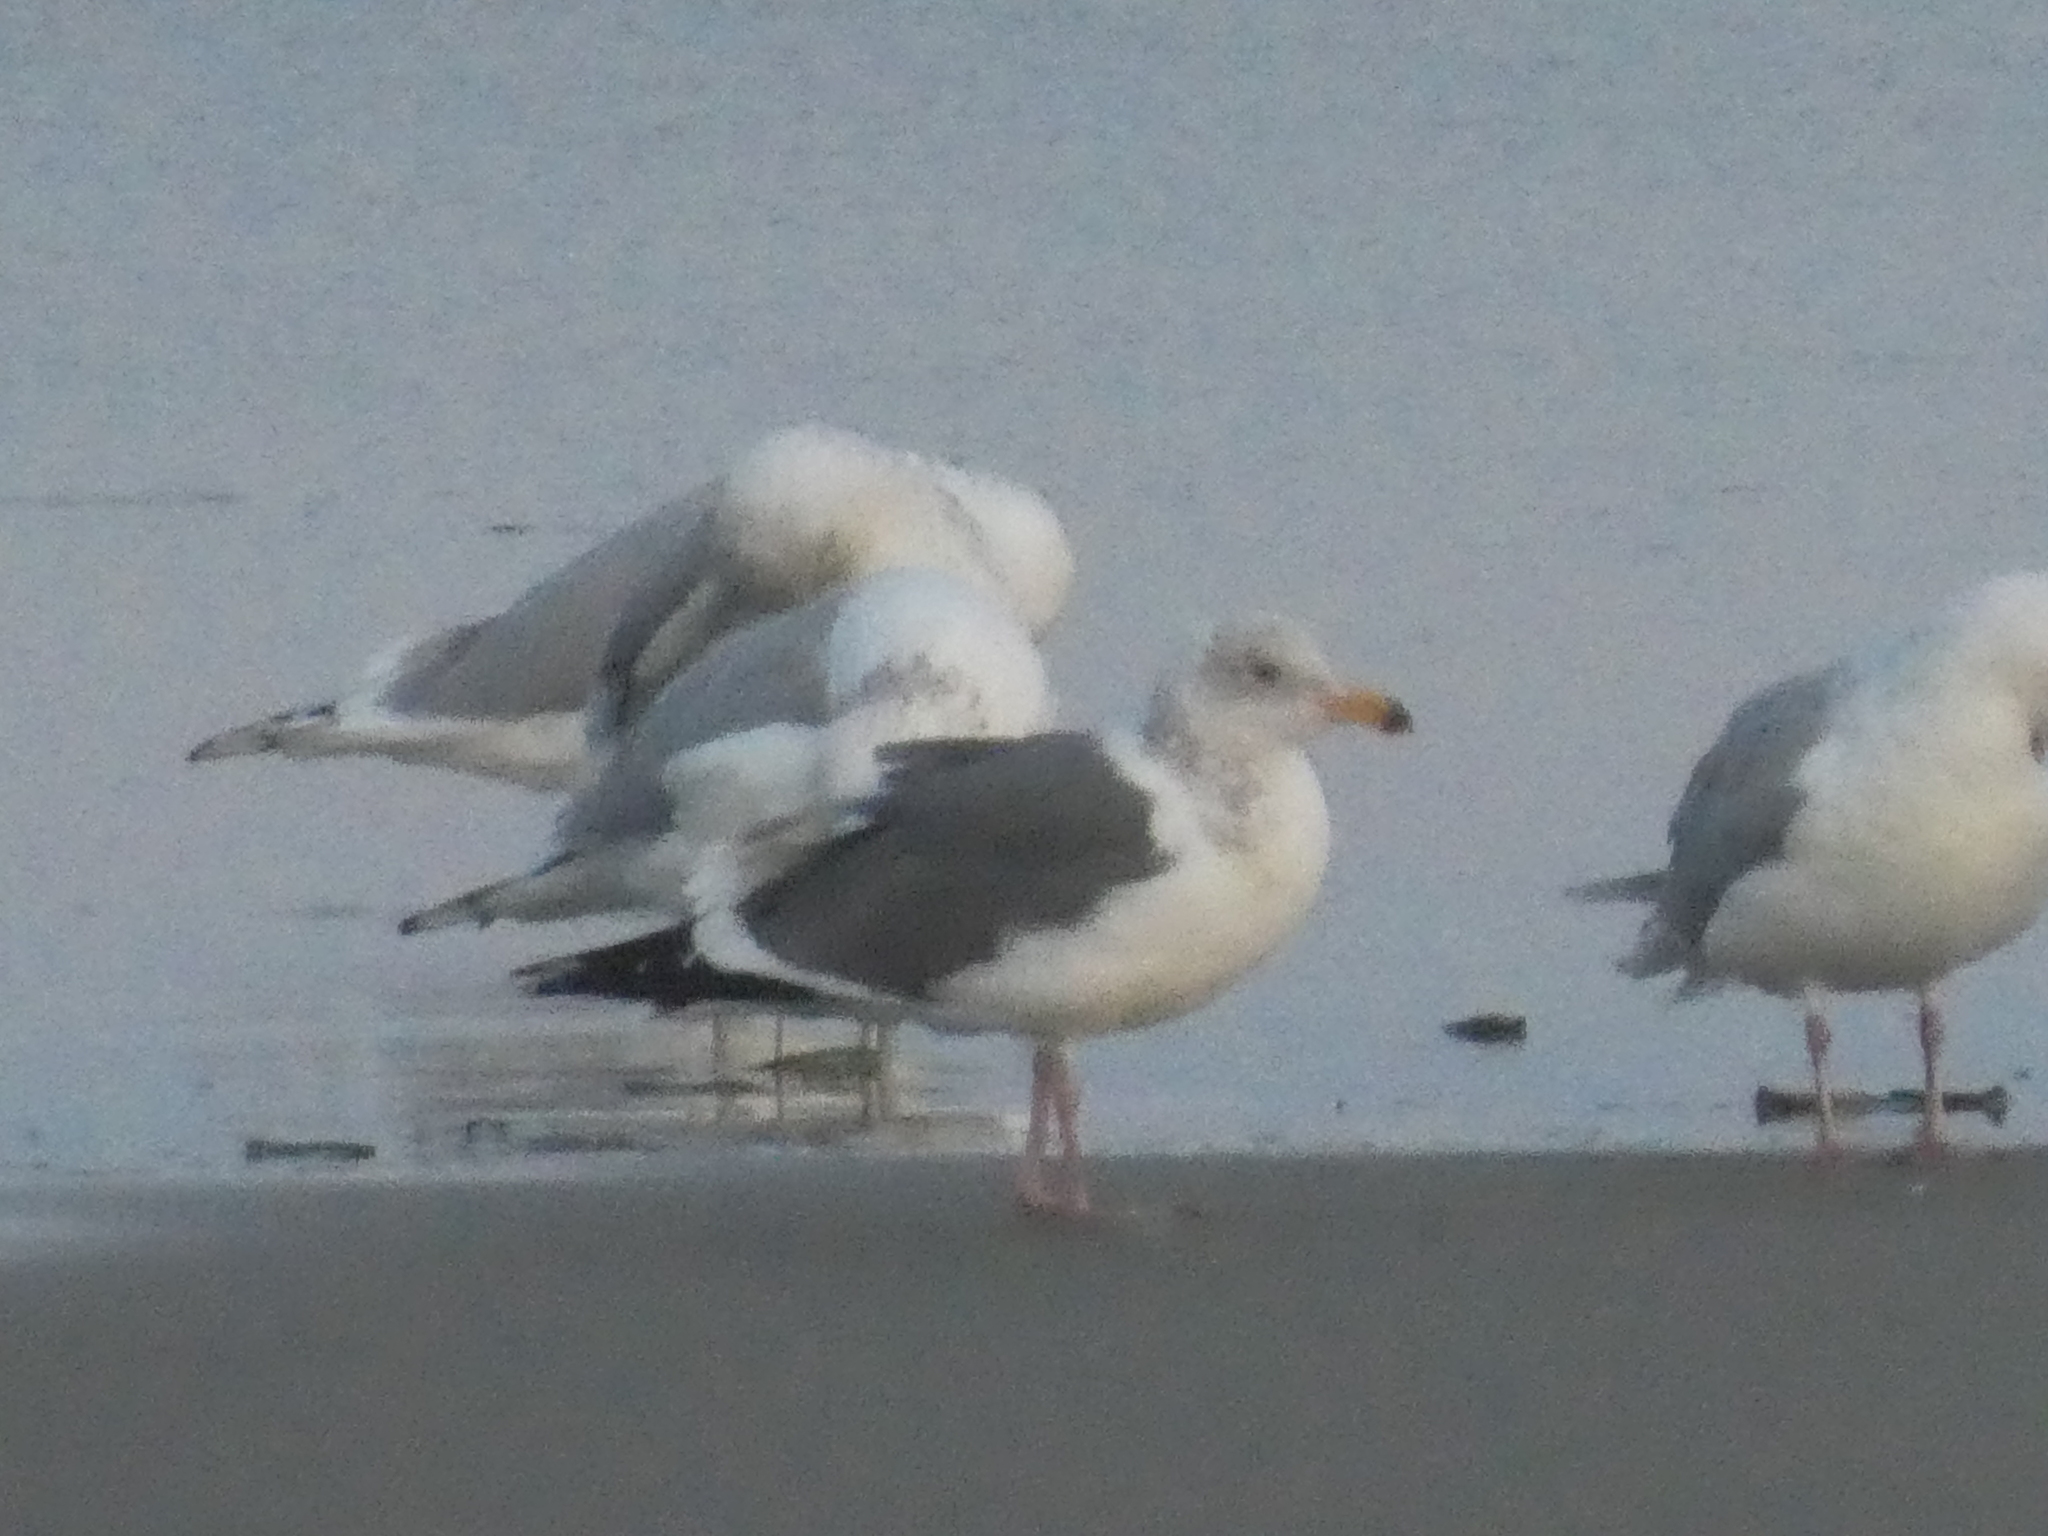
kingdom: Animalia
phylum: Chordata
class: Aves
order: Charadriiformes
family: Laridae
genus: Larus
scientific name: Larus occidentalis
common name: Western gull
